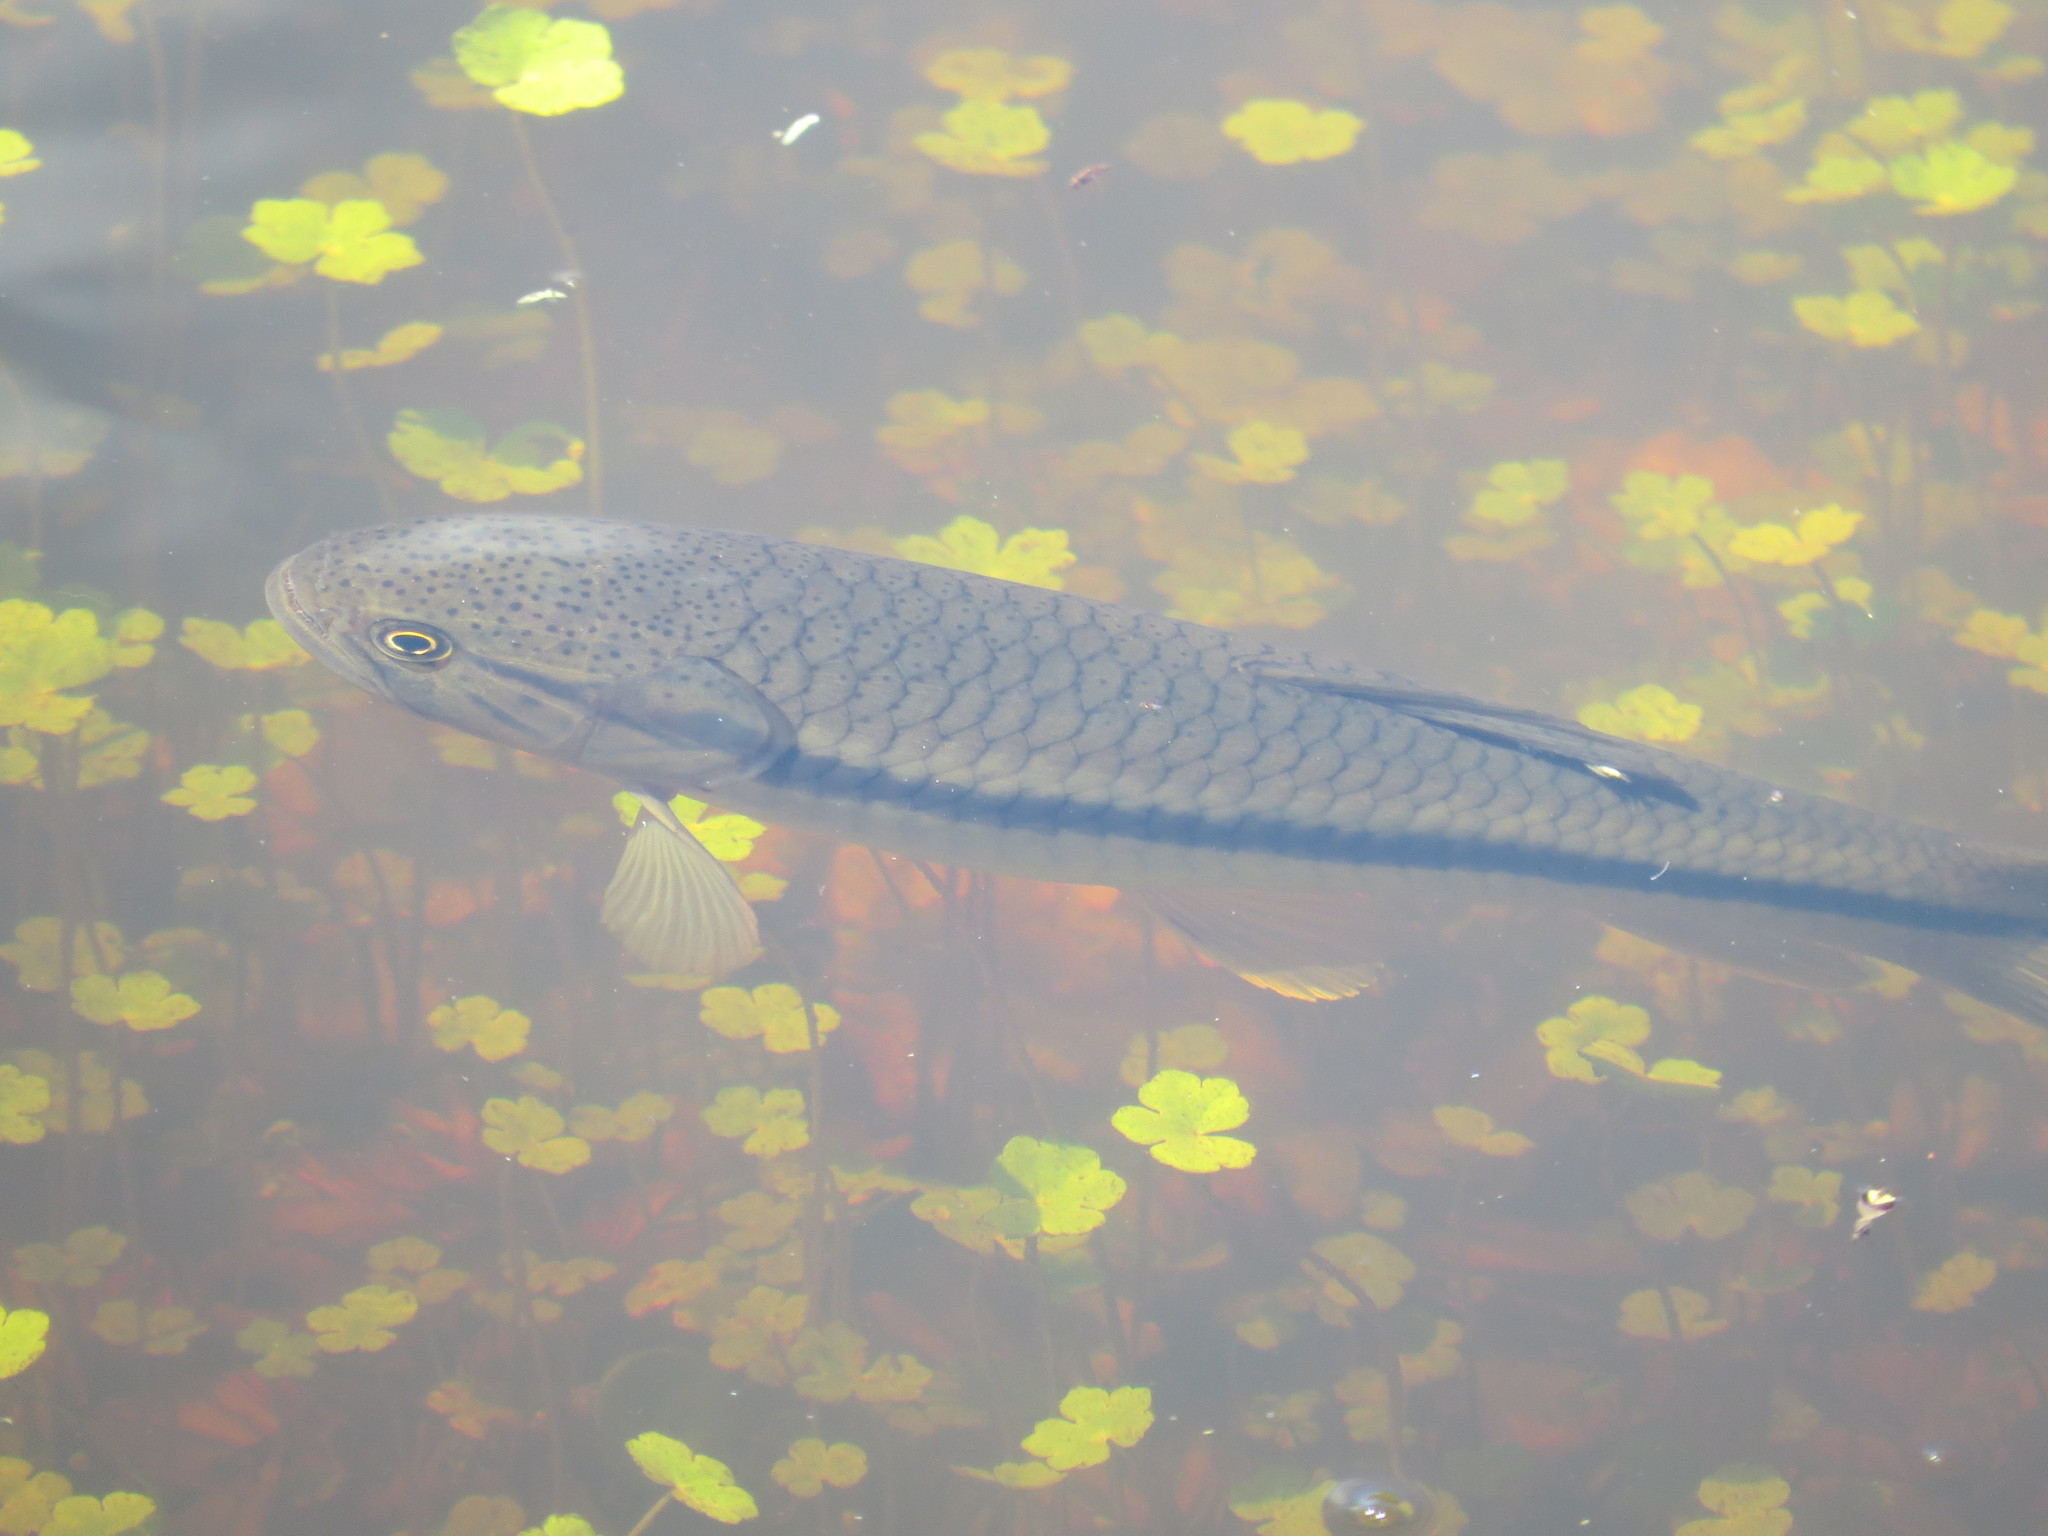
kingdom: Animalia
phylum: Chordata
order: Characiformes
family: Erythrinidae
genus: Hoplerythrinus
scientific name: Hoplerythrinus unitaeniatus
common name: Aimara
